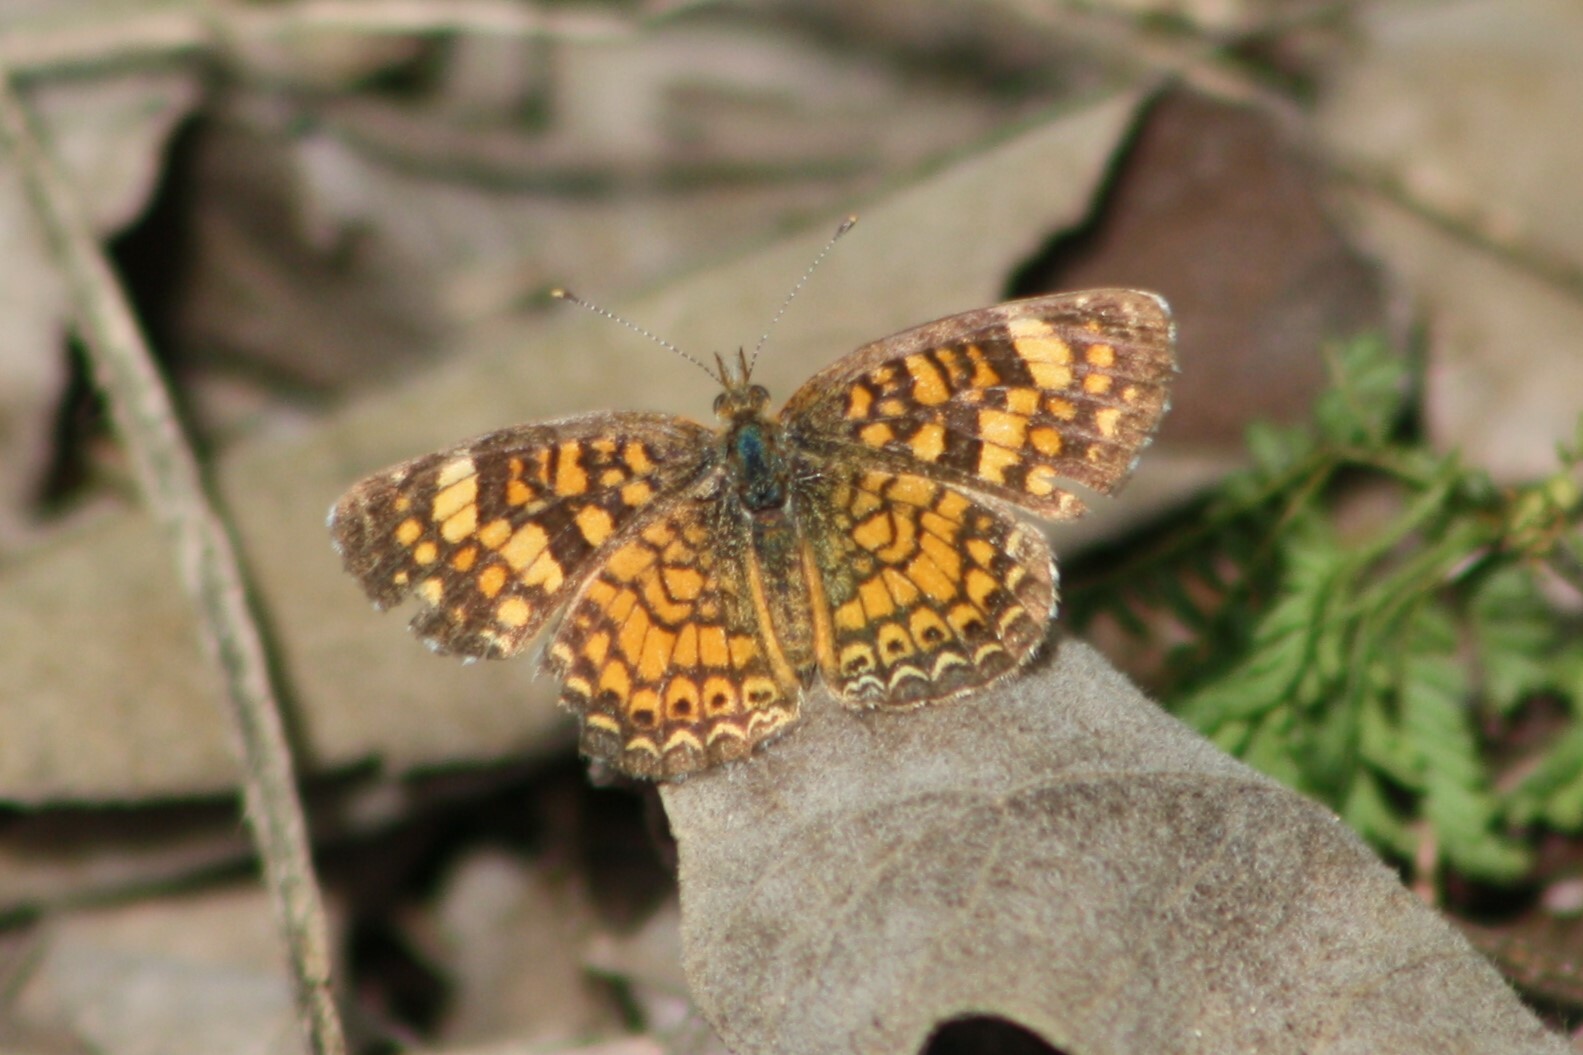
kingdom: Animalia
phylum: Arthropoda
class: Insecta
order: Lepidoptera
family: Nymphalidae
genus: Phyciodes
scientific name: Phyciodes vesta
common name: Vesta crescent
